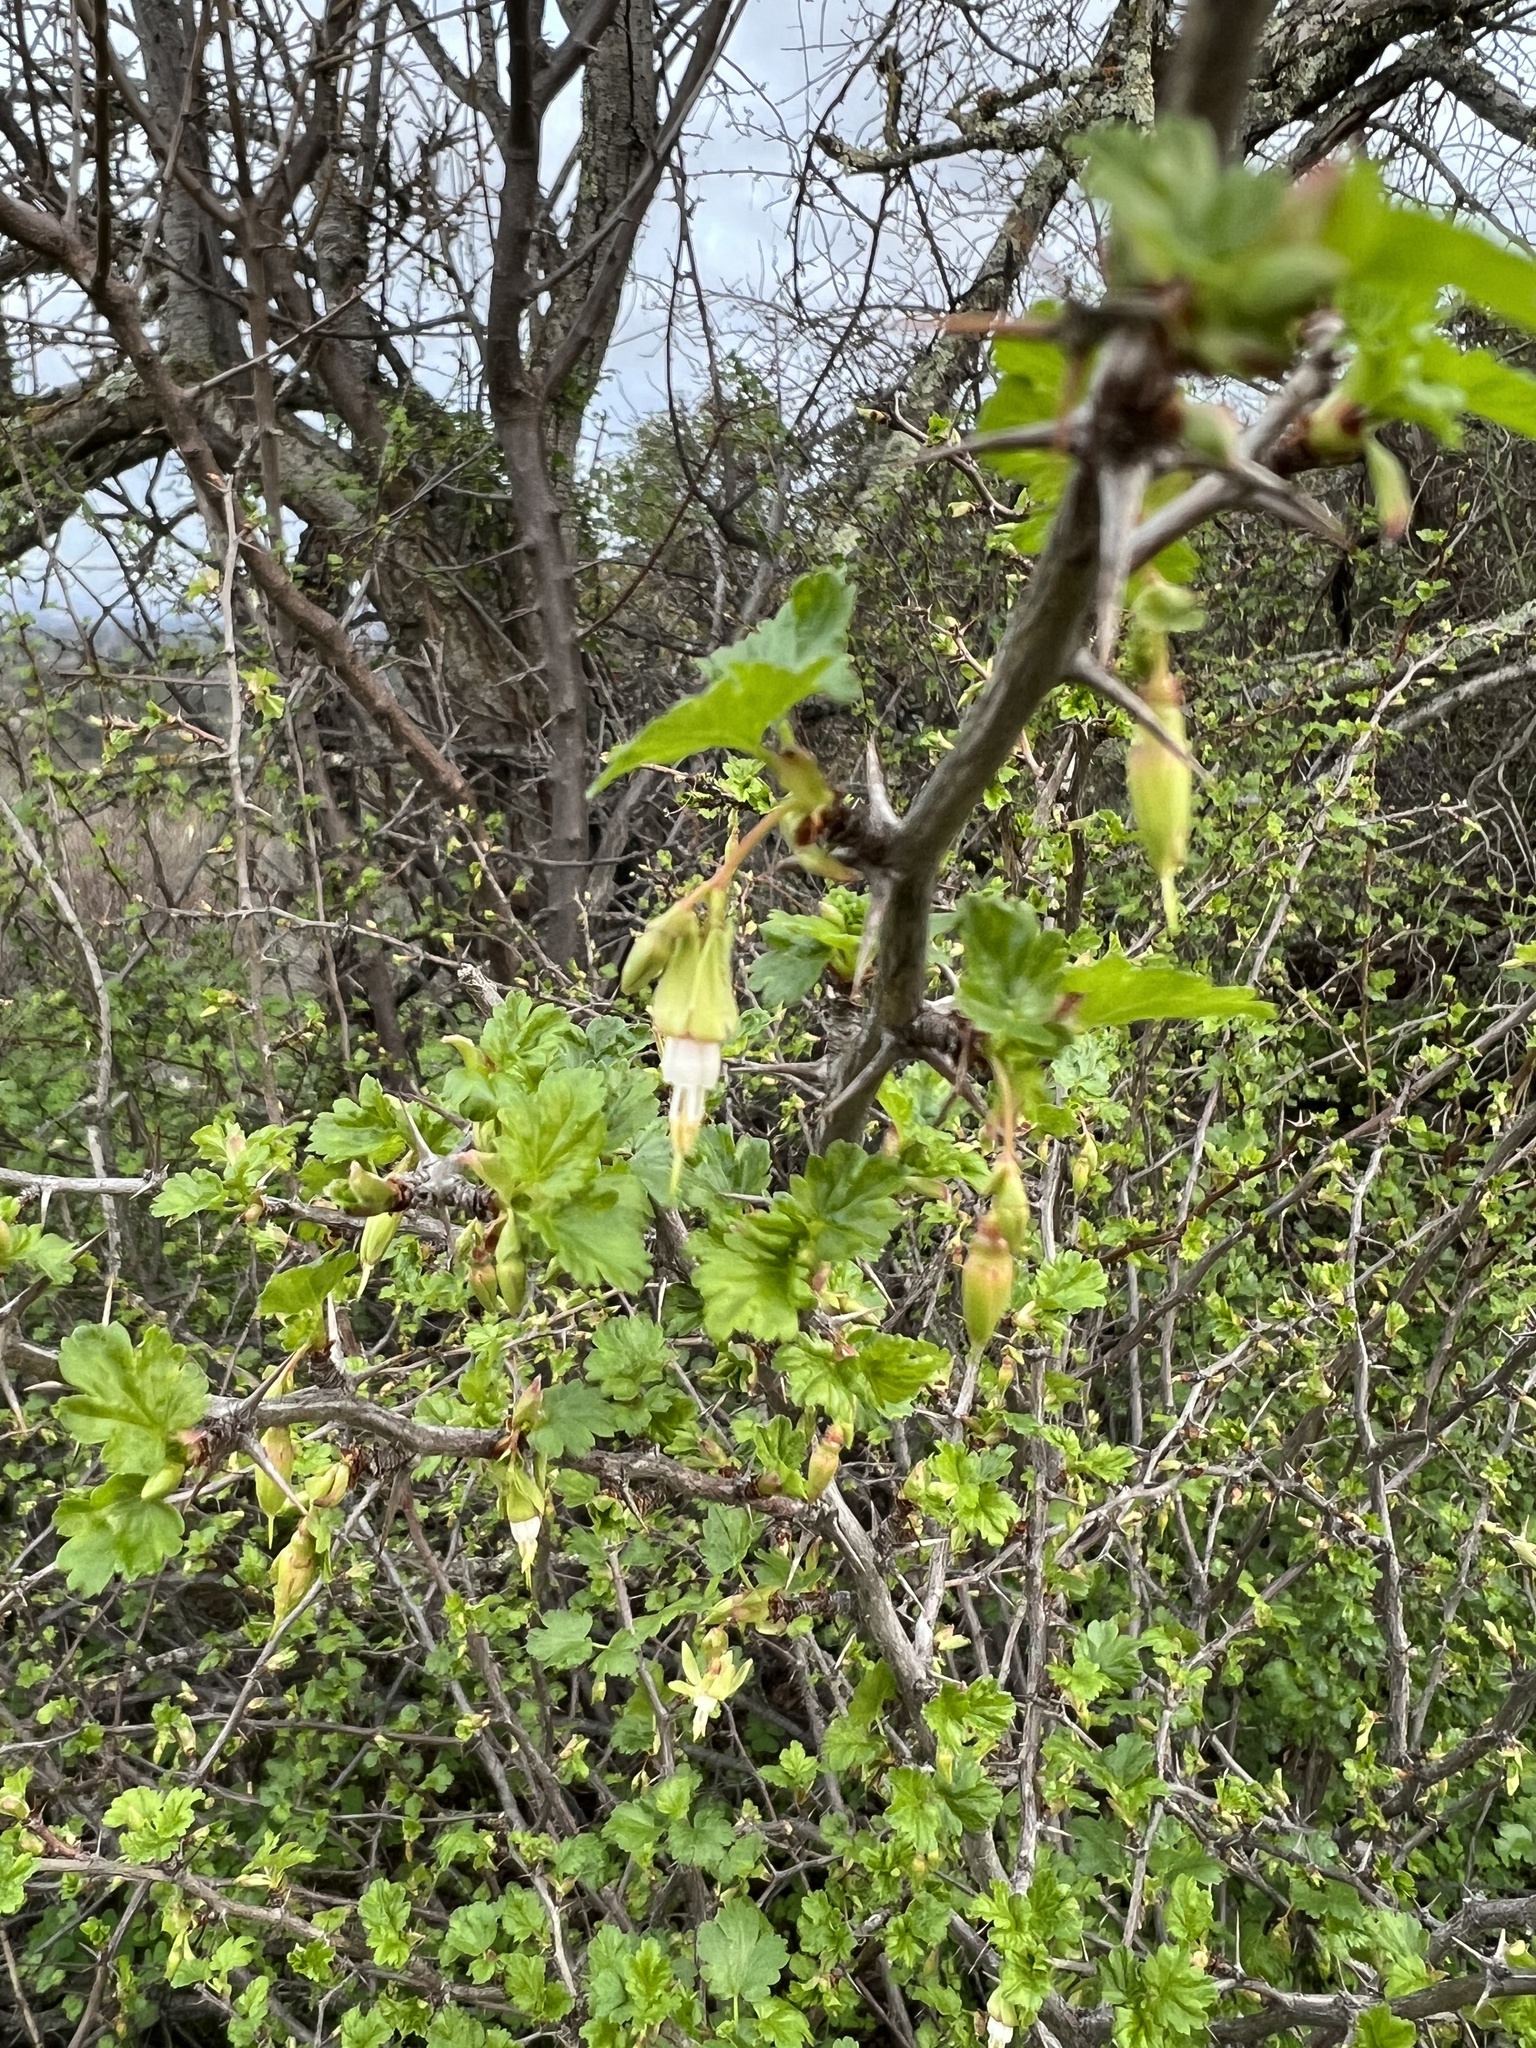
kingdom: Plantae
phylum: Tracheophyta
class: Magnoliopsida
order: Saxifragales
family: Grossulariaceae
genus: Ribes
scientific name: Ribes californicum
